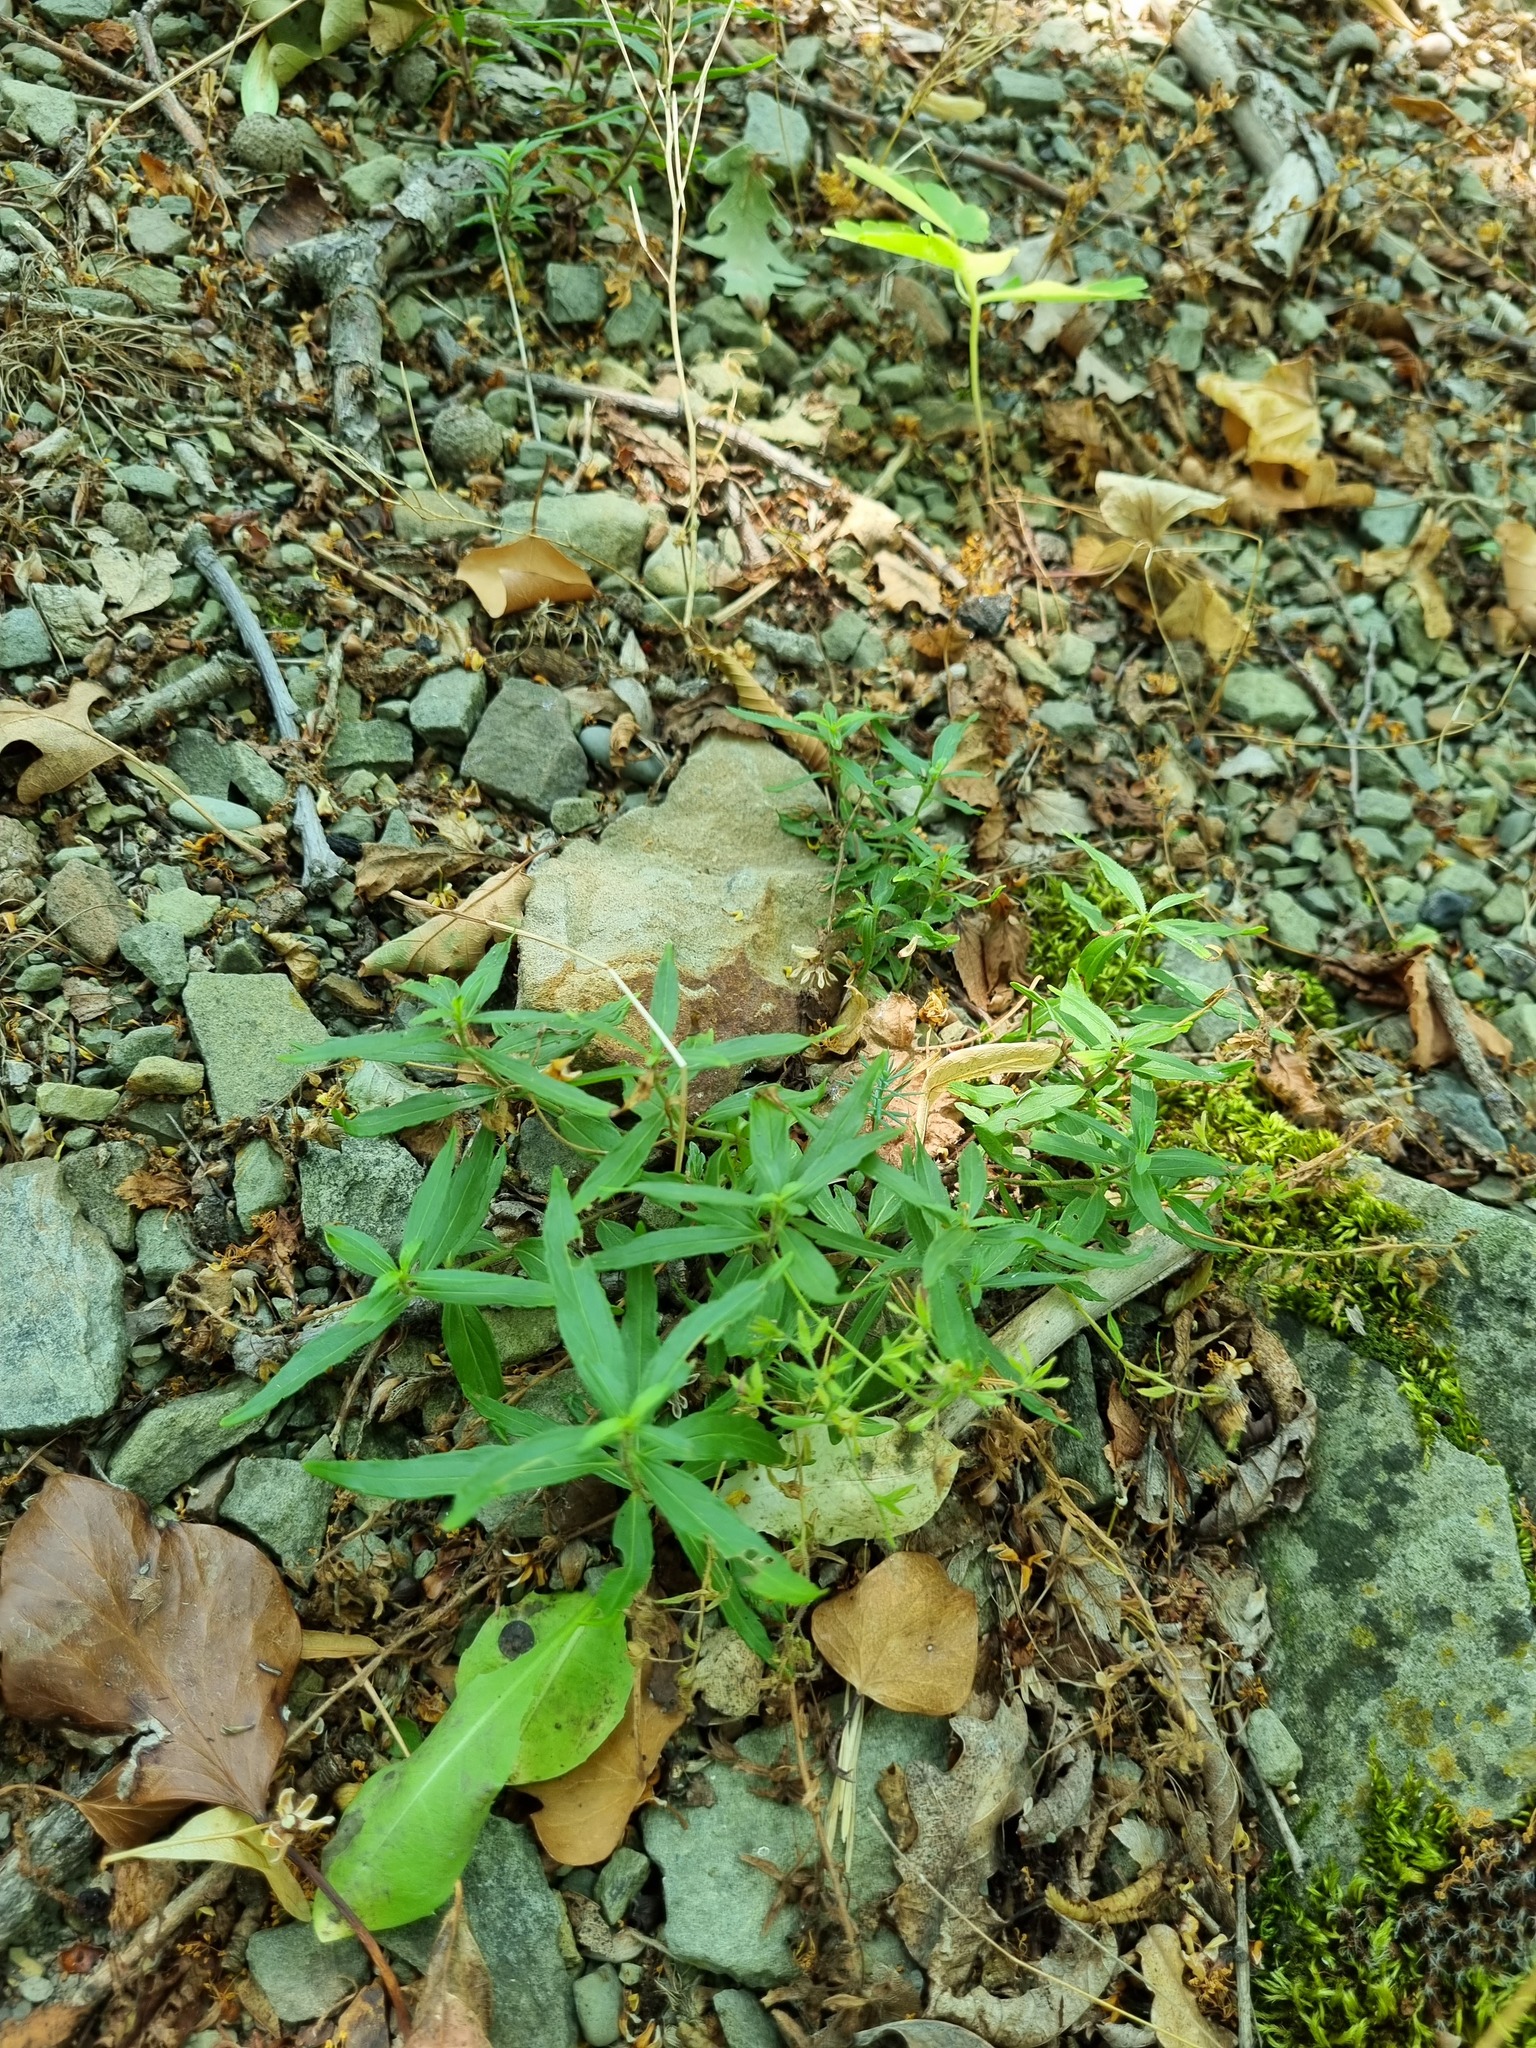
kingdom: Plantae
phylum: Tracheophyta
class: Magnoliopsida
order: Lamiales
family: Plantaginaceae
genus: Veronica
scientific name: Veronica
